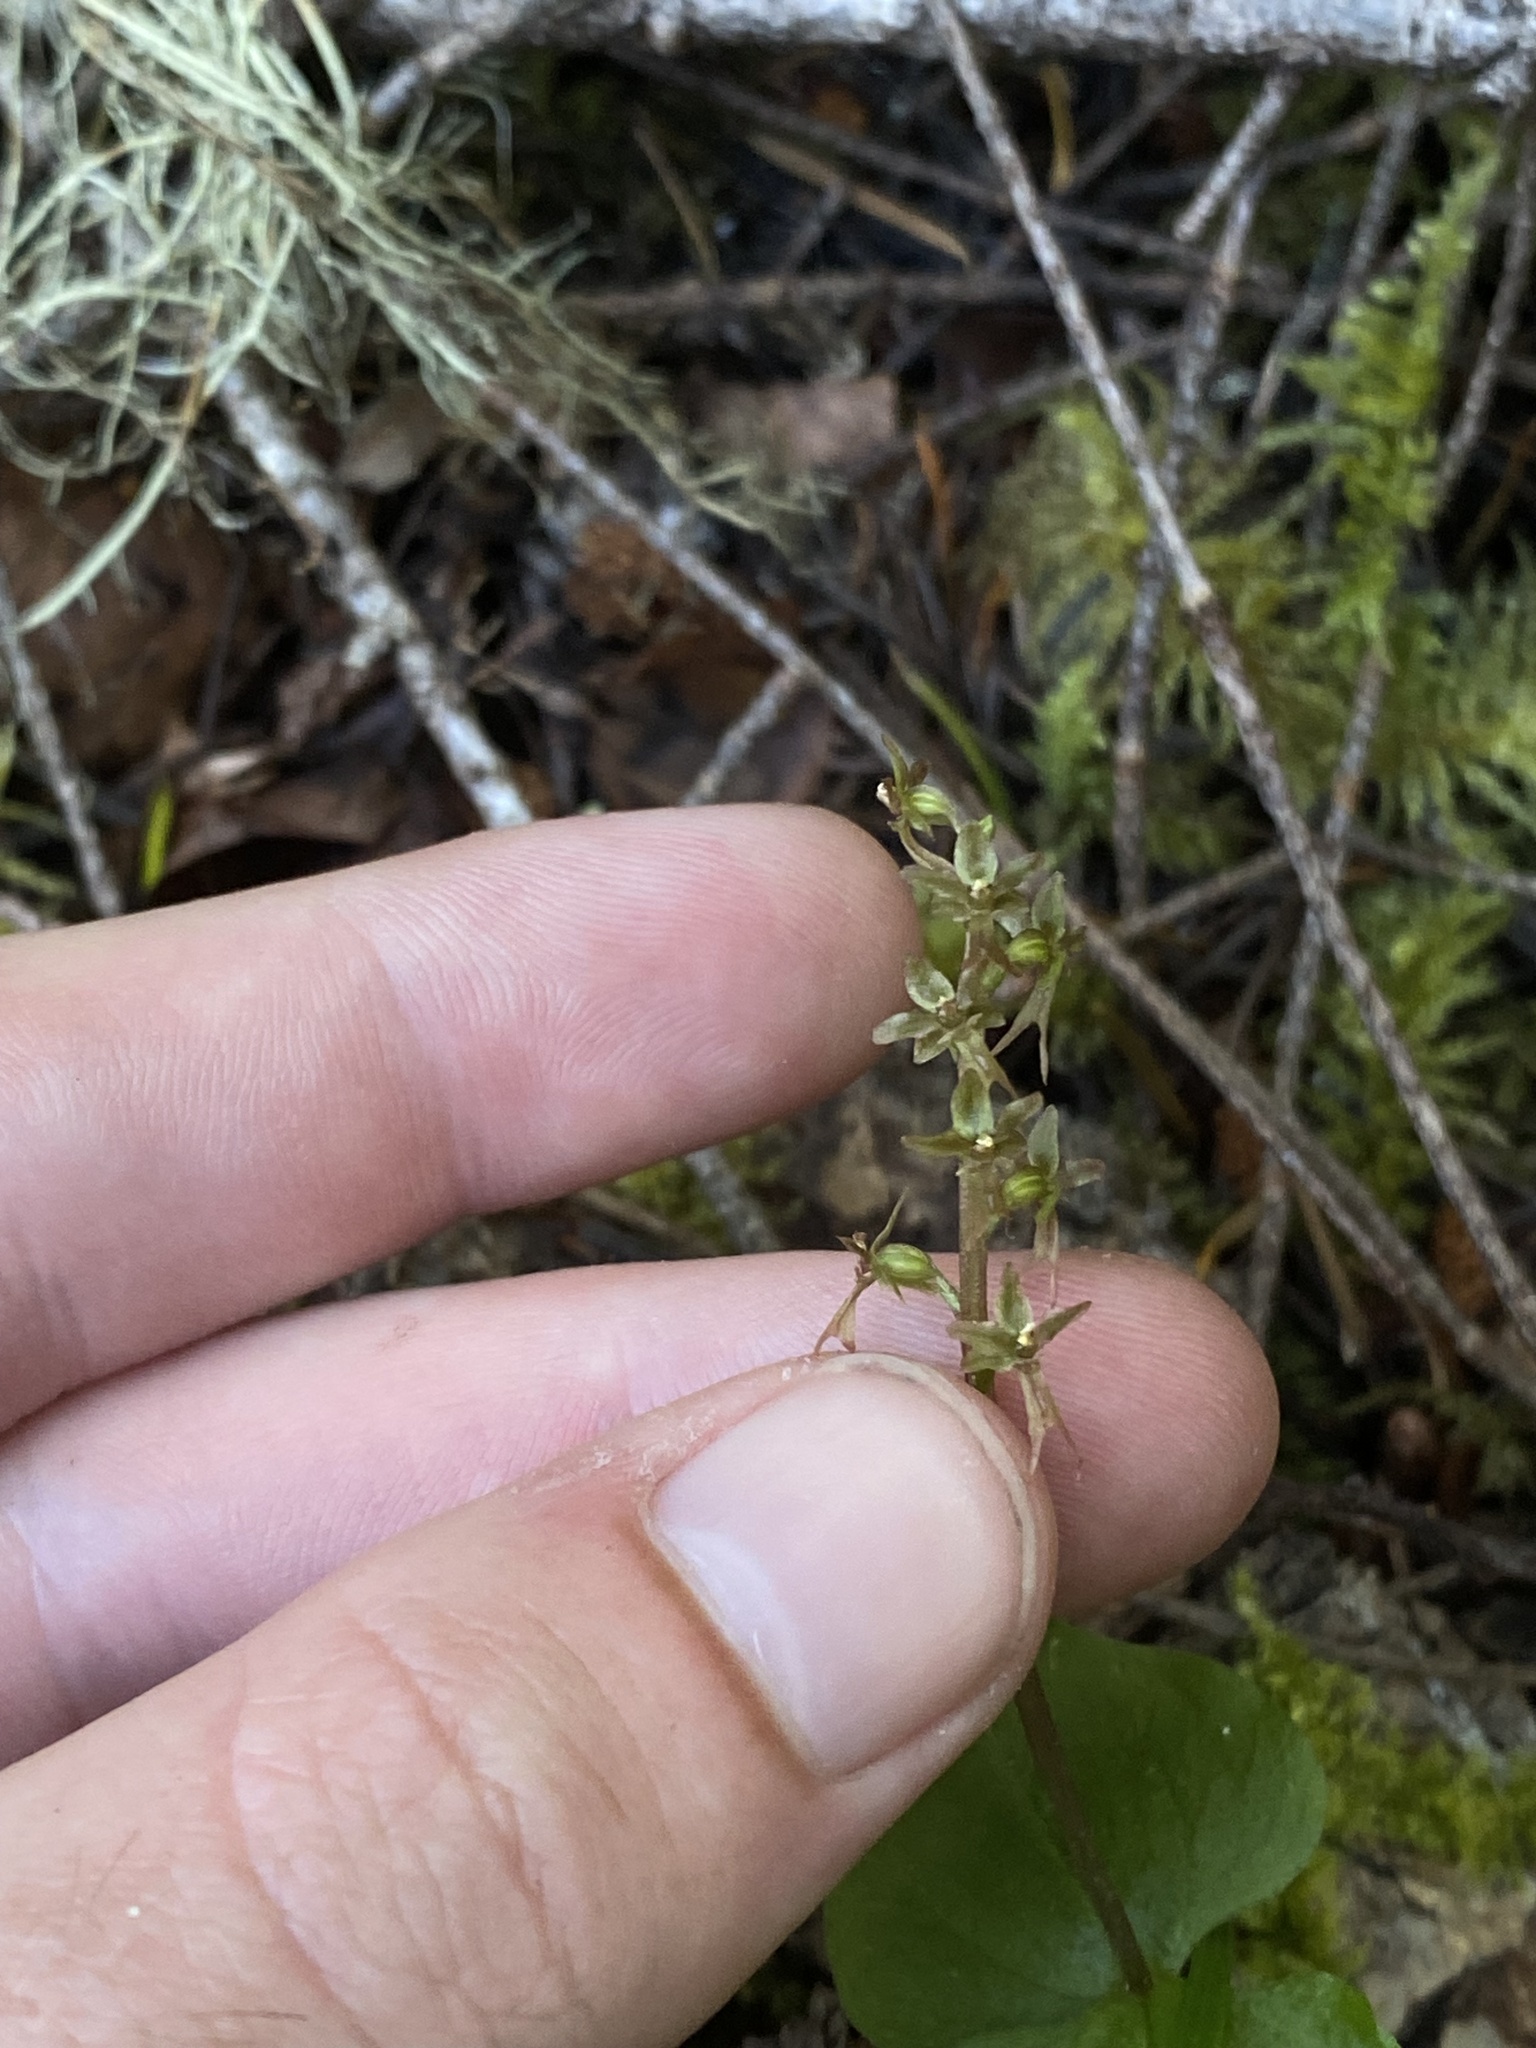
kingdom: Plantae
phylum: Tracheophyta
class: Liliopsida
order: Asparagales
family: Orchidaceae
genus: Neottia
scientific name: Neottia cordata
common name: Lesser twayblade
